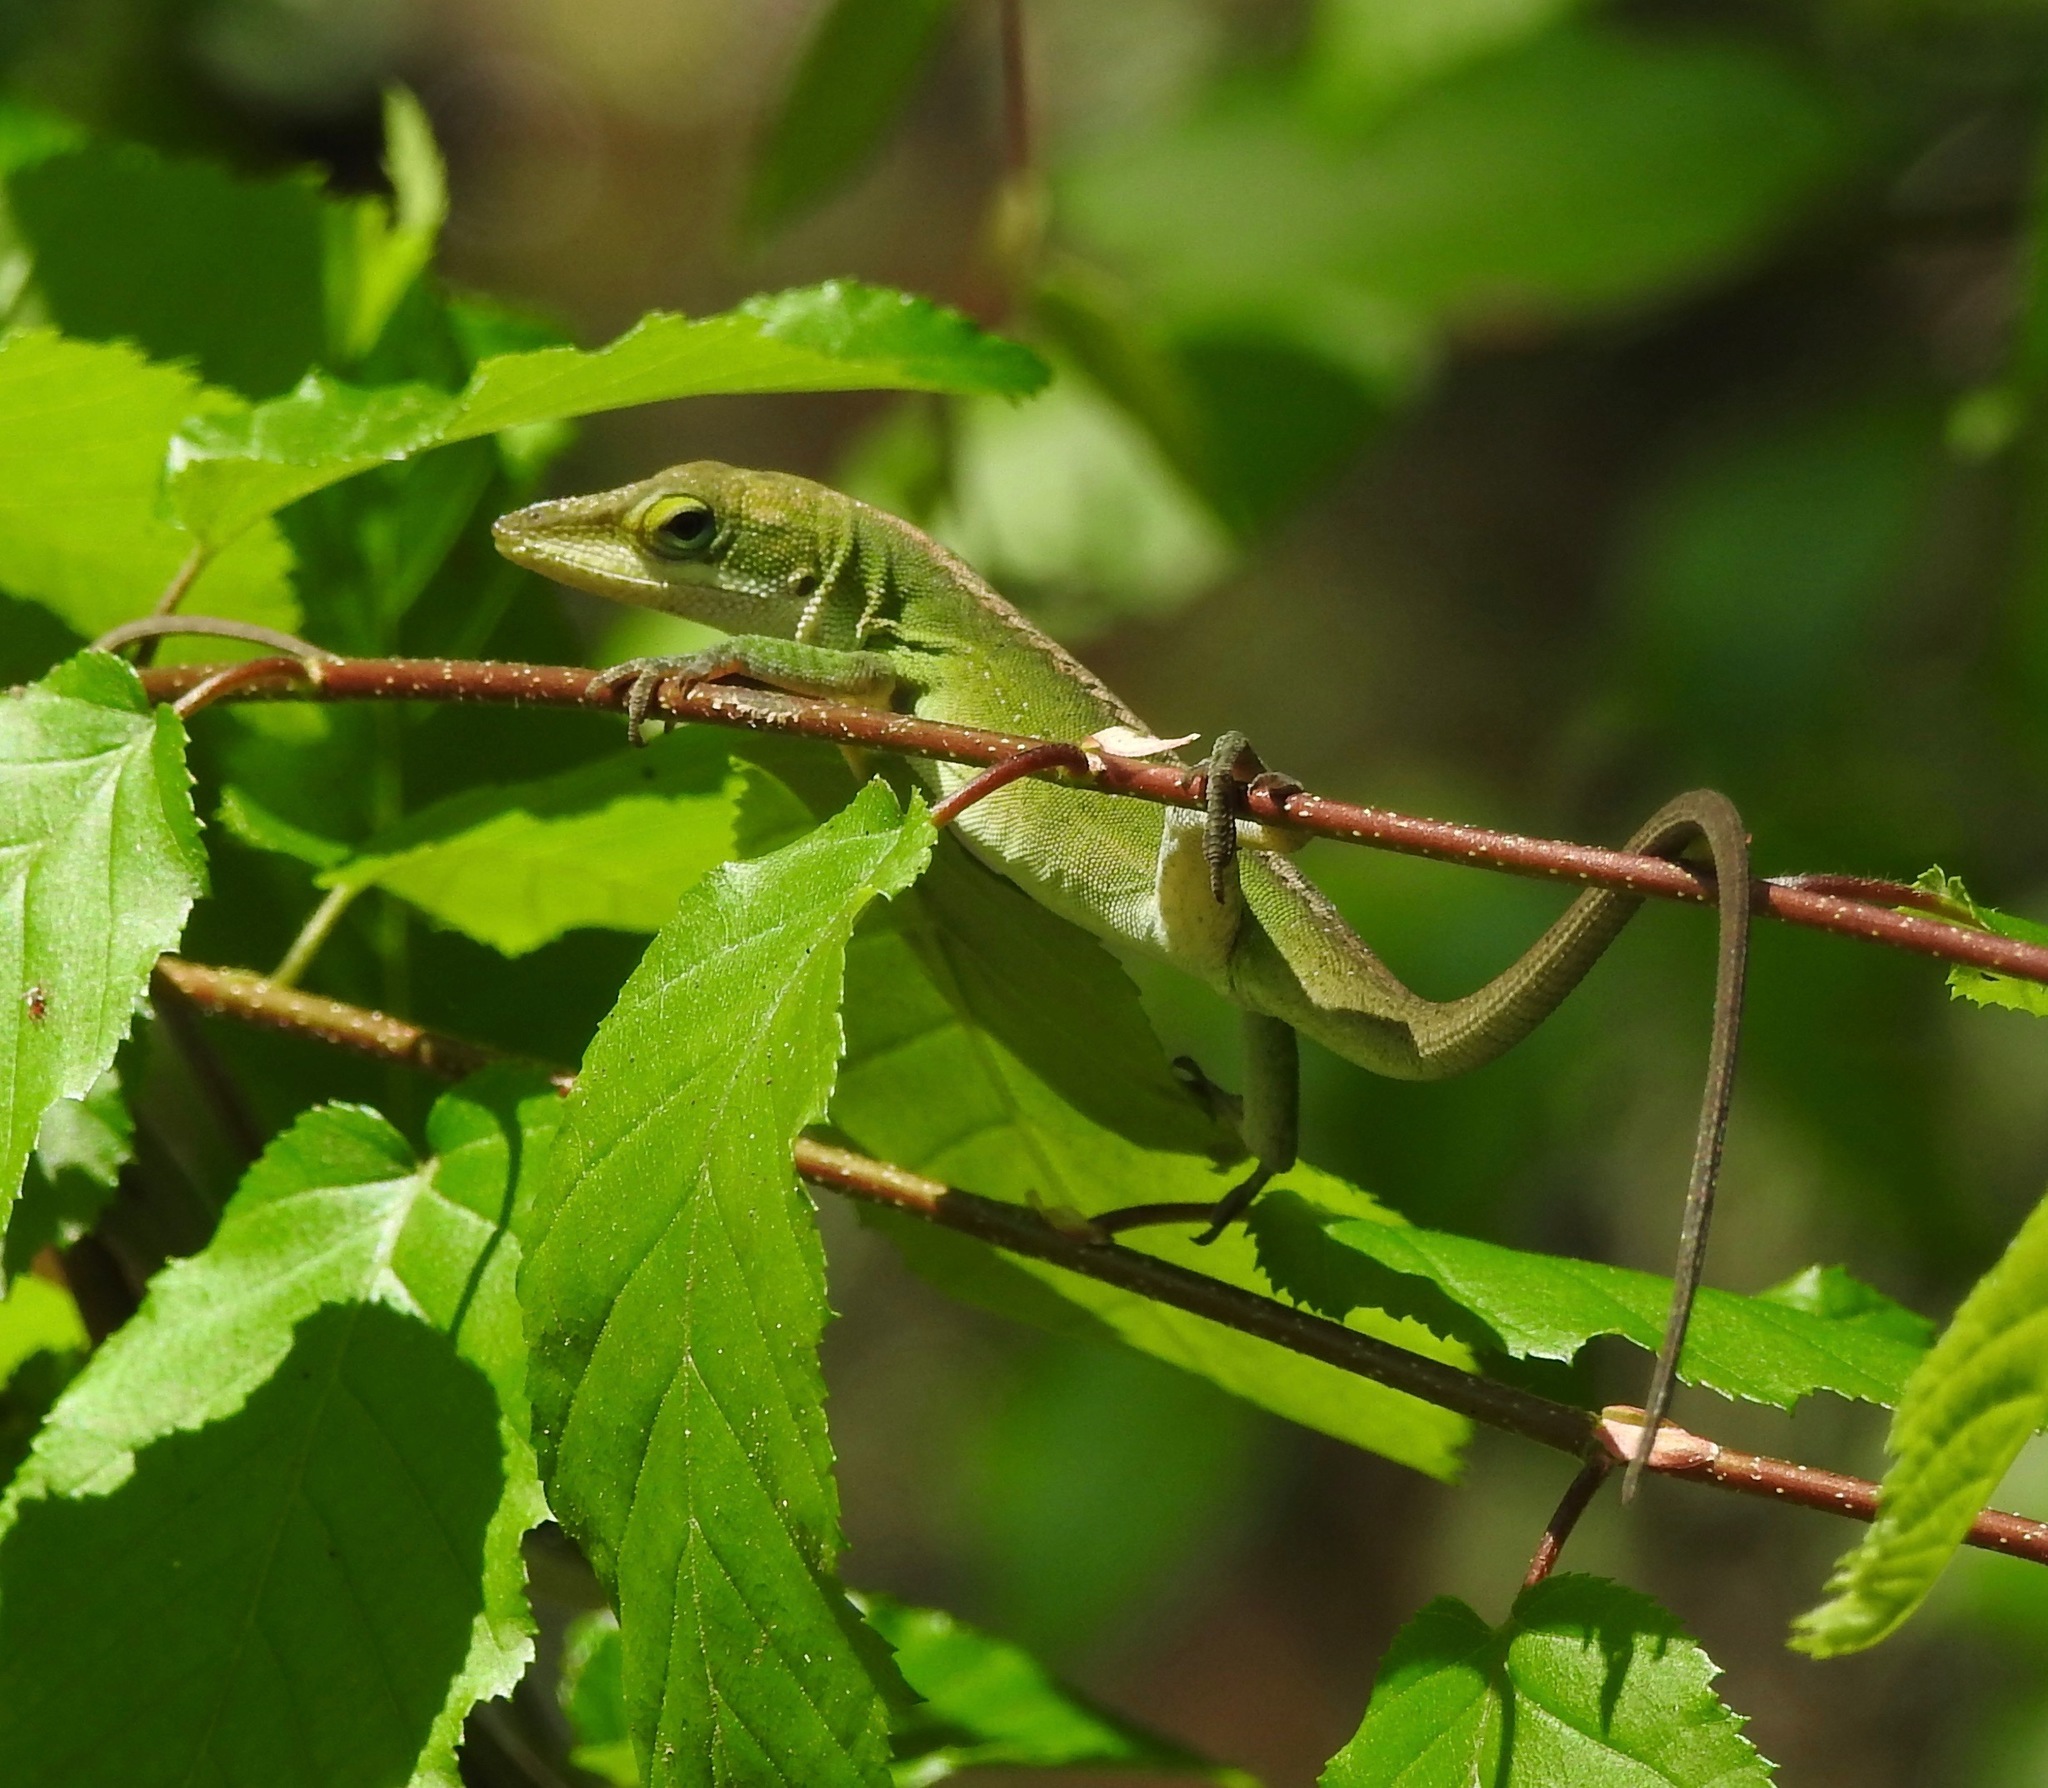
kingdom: Animalia
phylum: Chordata
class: Squamata
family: Dactyloidae
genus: Anolis
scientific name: Anolis carolinensis
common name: Green anole
